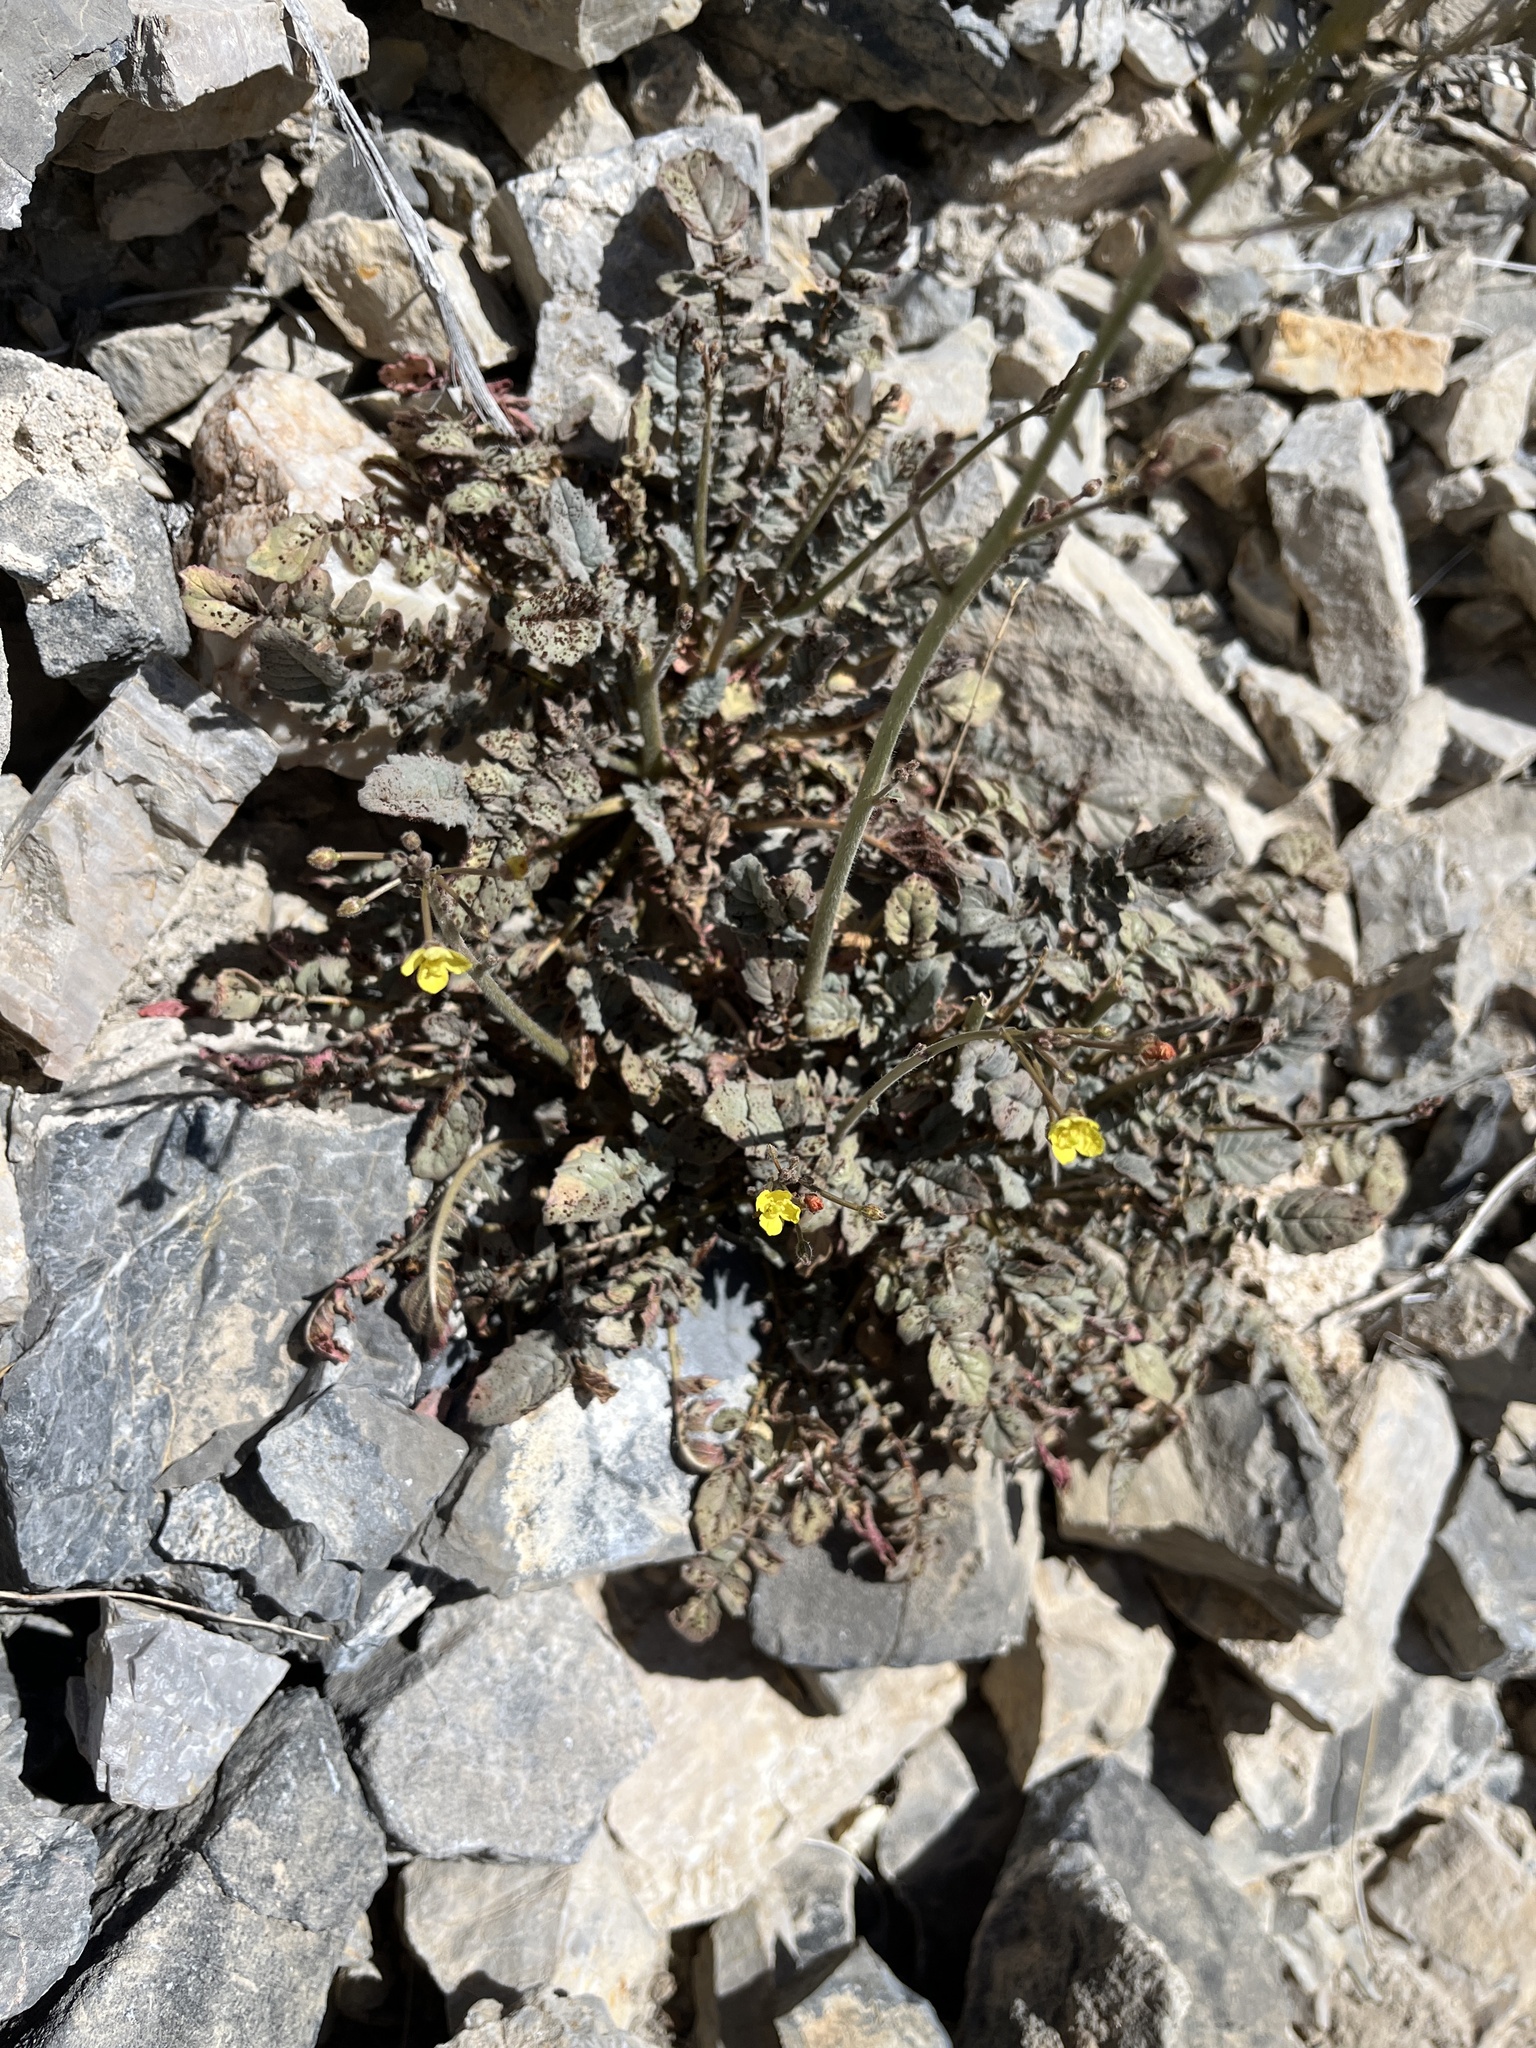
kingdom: Plantae
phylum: Tracheophyta
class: Magnoliopsida
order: Myrtales
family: Onagraceae
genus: Chylismia
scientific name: Chylismia walkeri
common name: Walker's suncup
